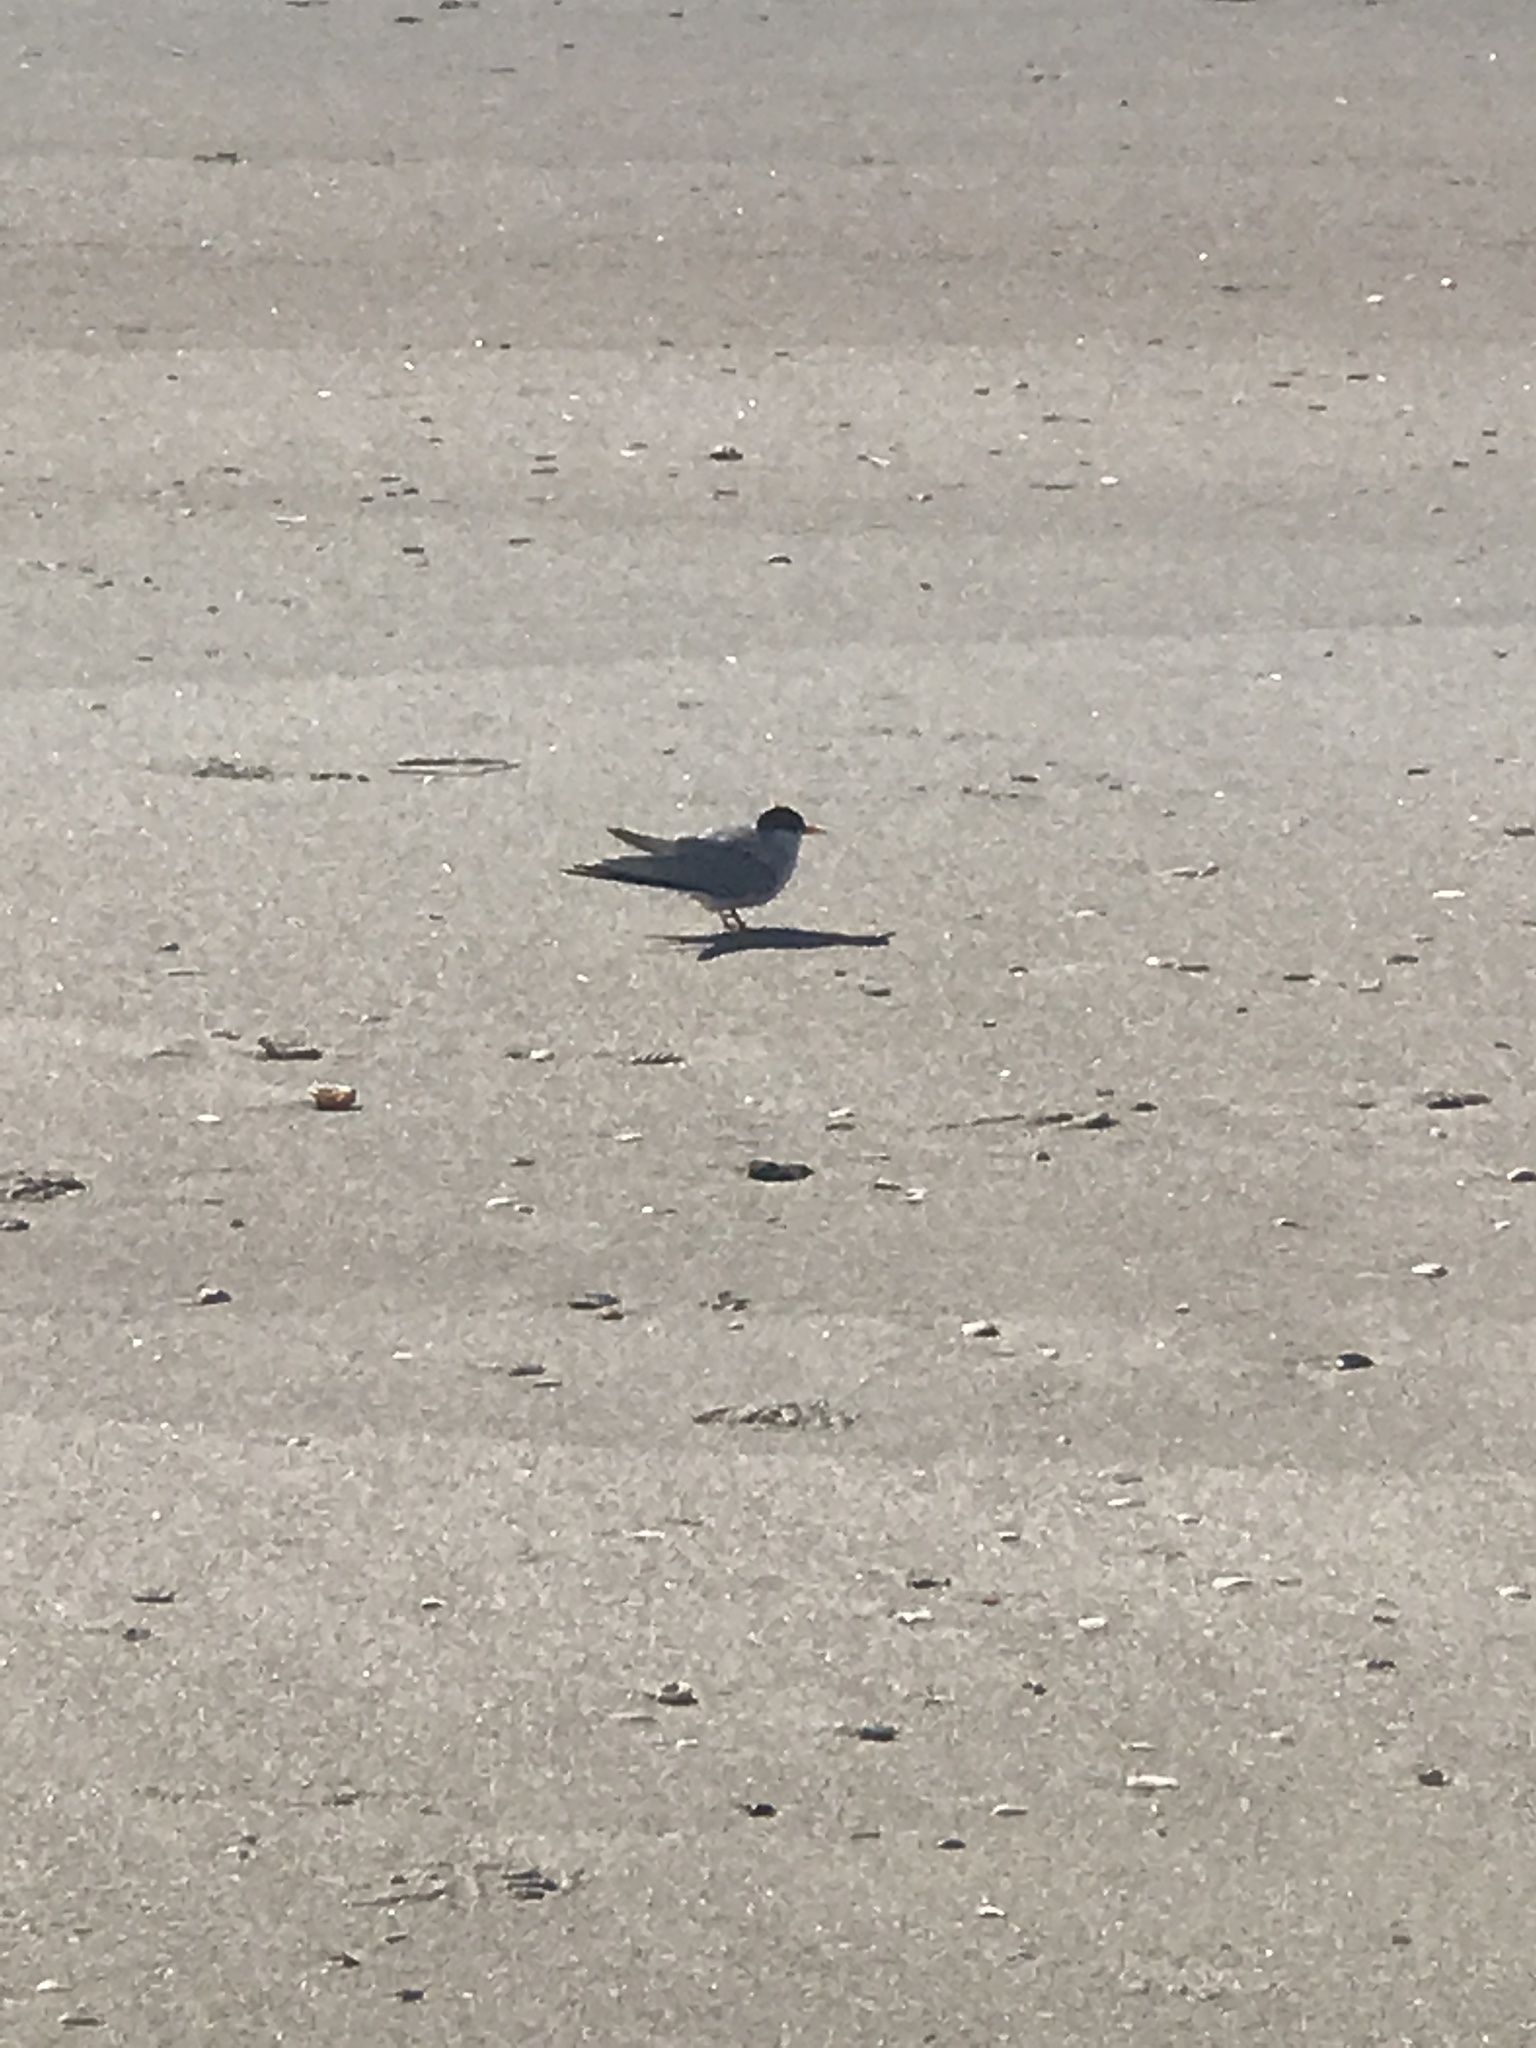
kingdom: Animalia
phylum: Chordata
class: Aves
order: Charadriiformes
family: Laridae
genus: Sternula
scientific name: Sternula antillarum
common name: Least tern
